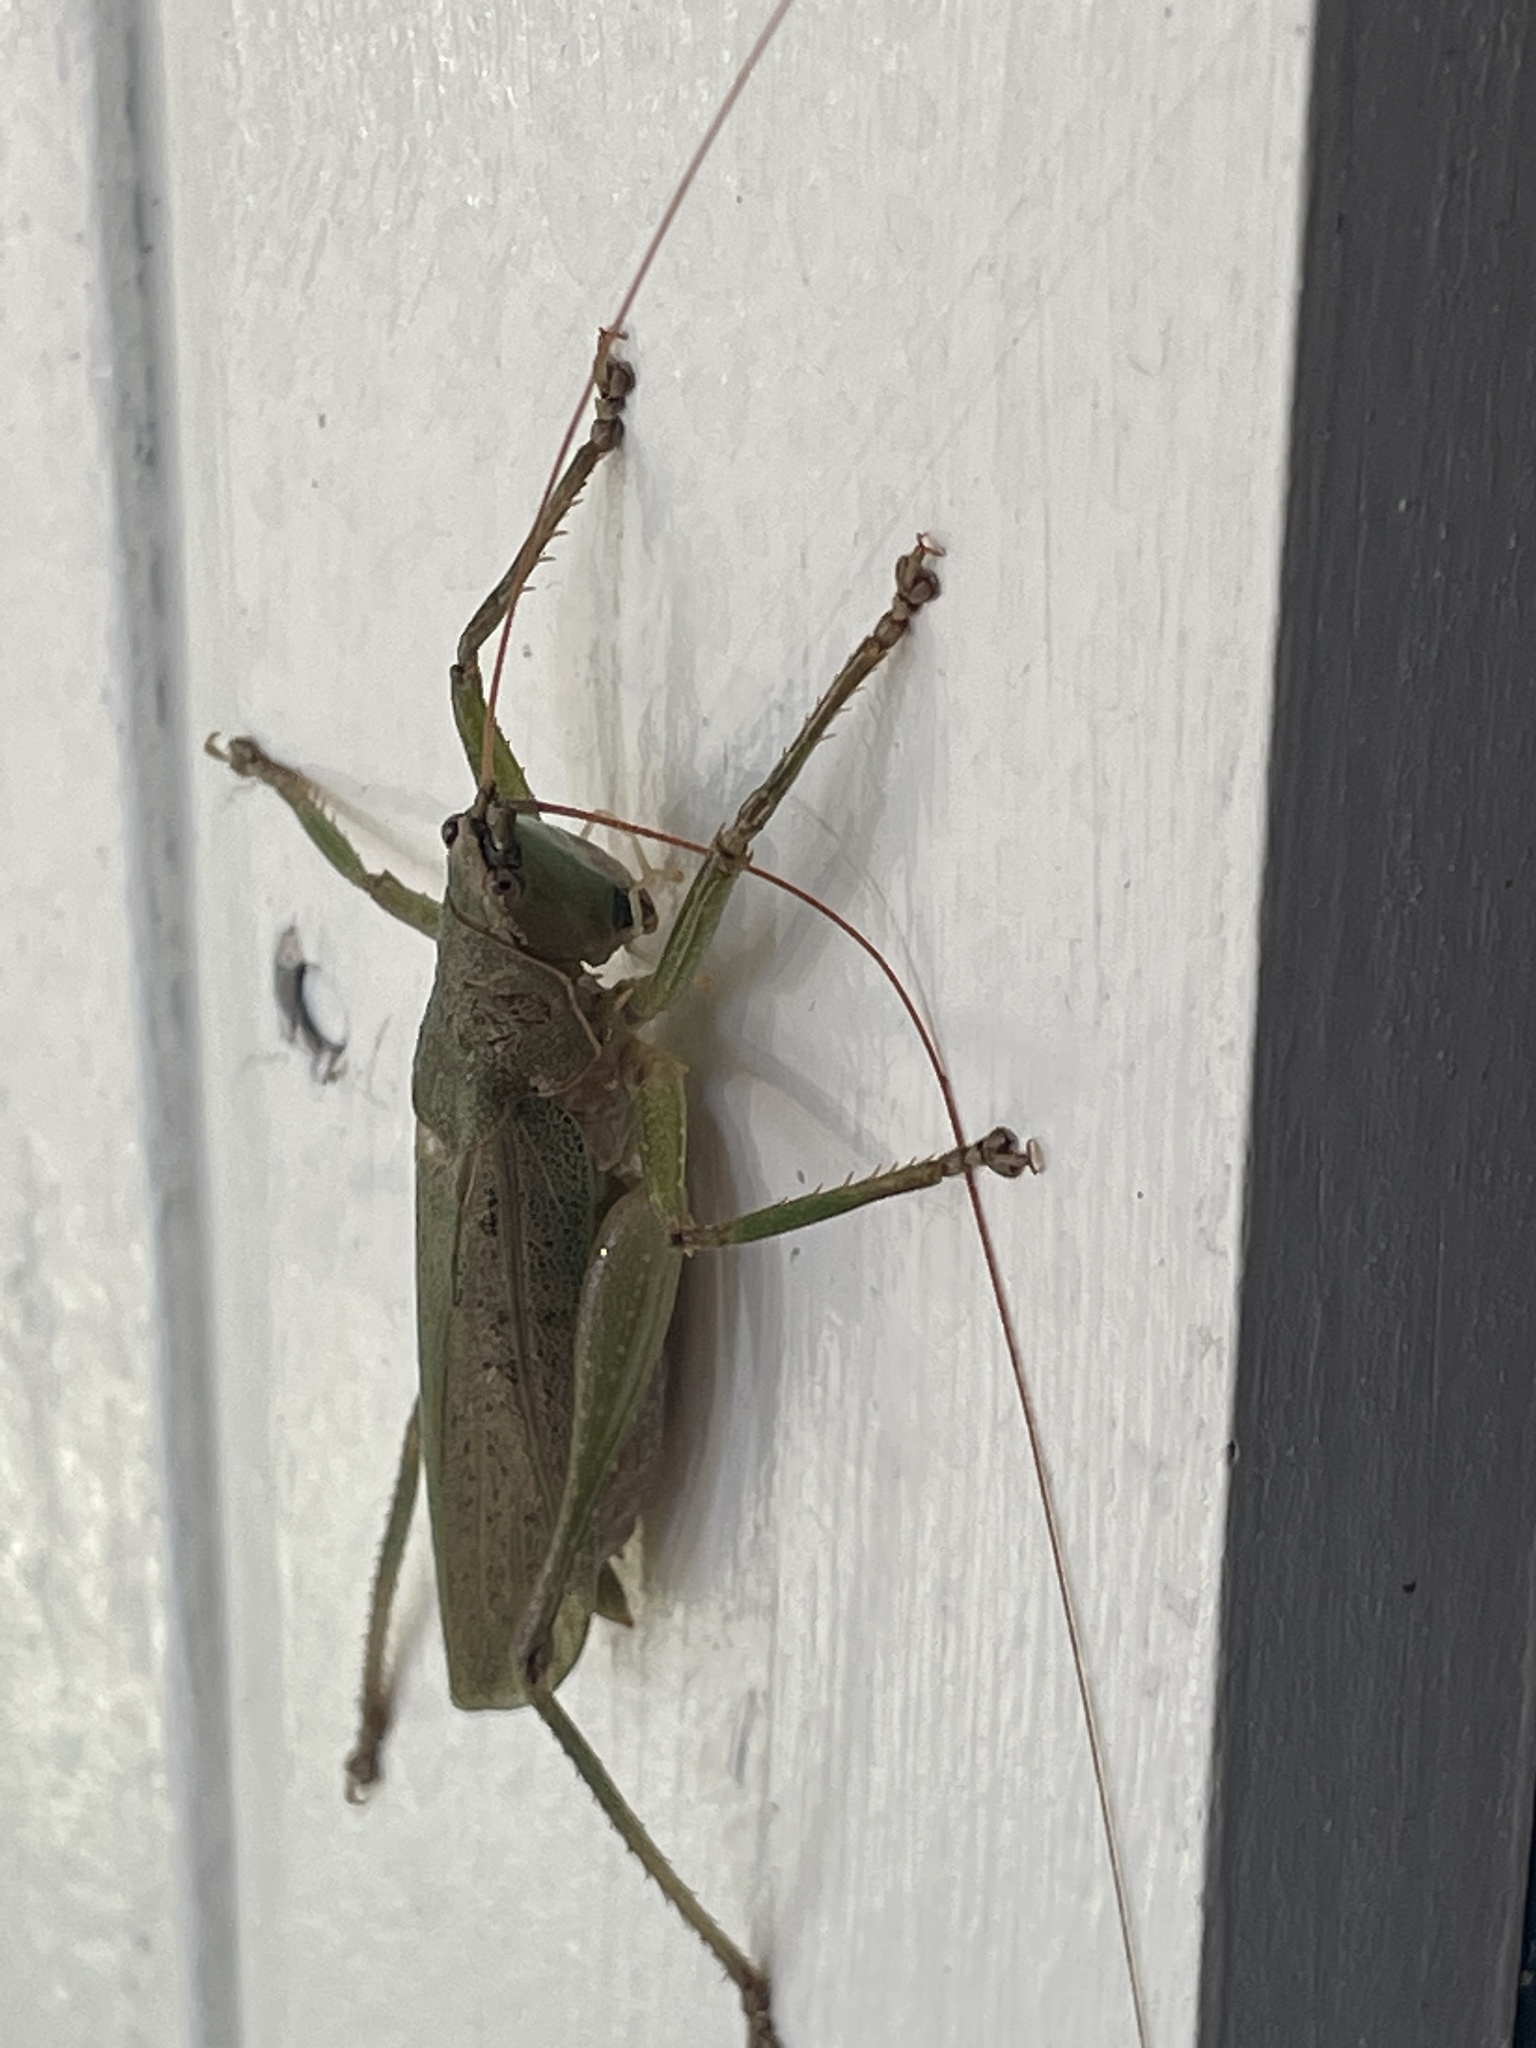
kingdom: Animalia
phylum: Arthropoda
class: Insecta
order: Orthoptera
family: Tettigoniidae
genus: Austrosalomona
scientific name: Austrosalomona falcata
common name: Olive-green coastal katydid
